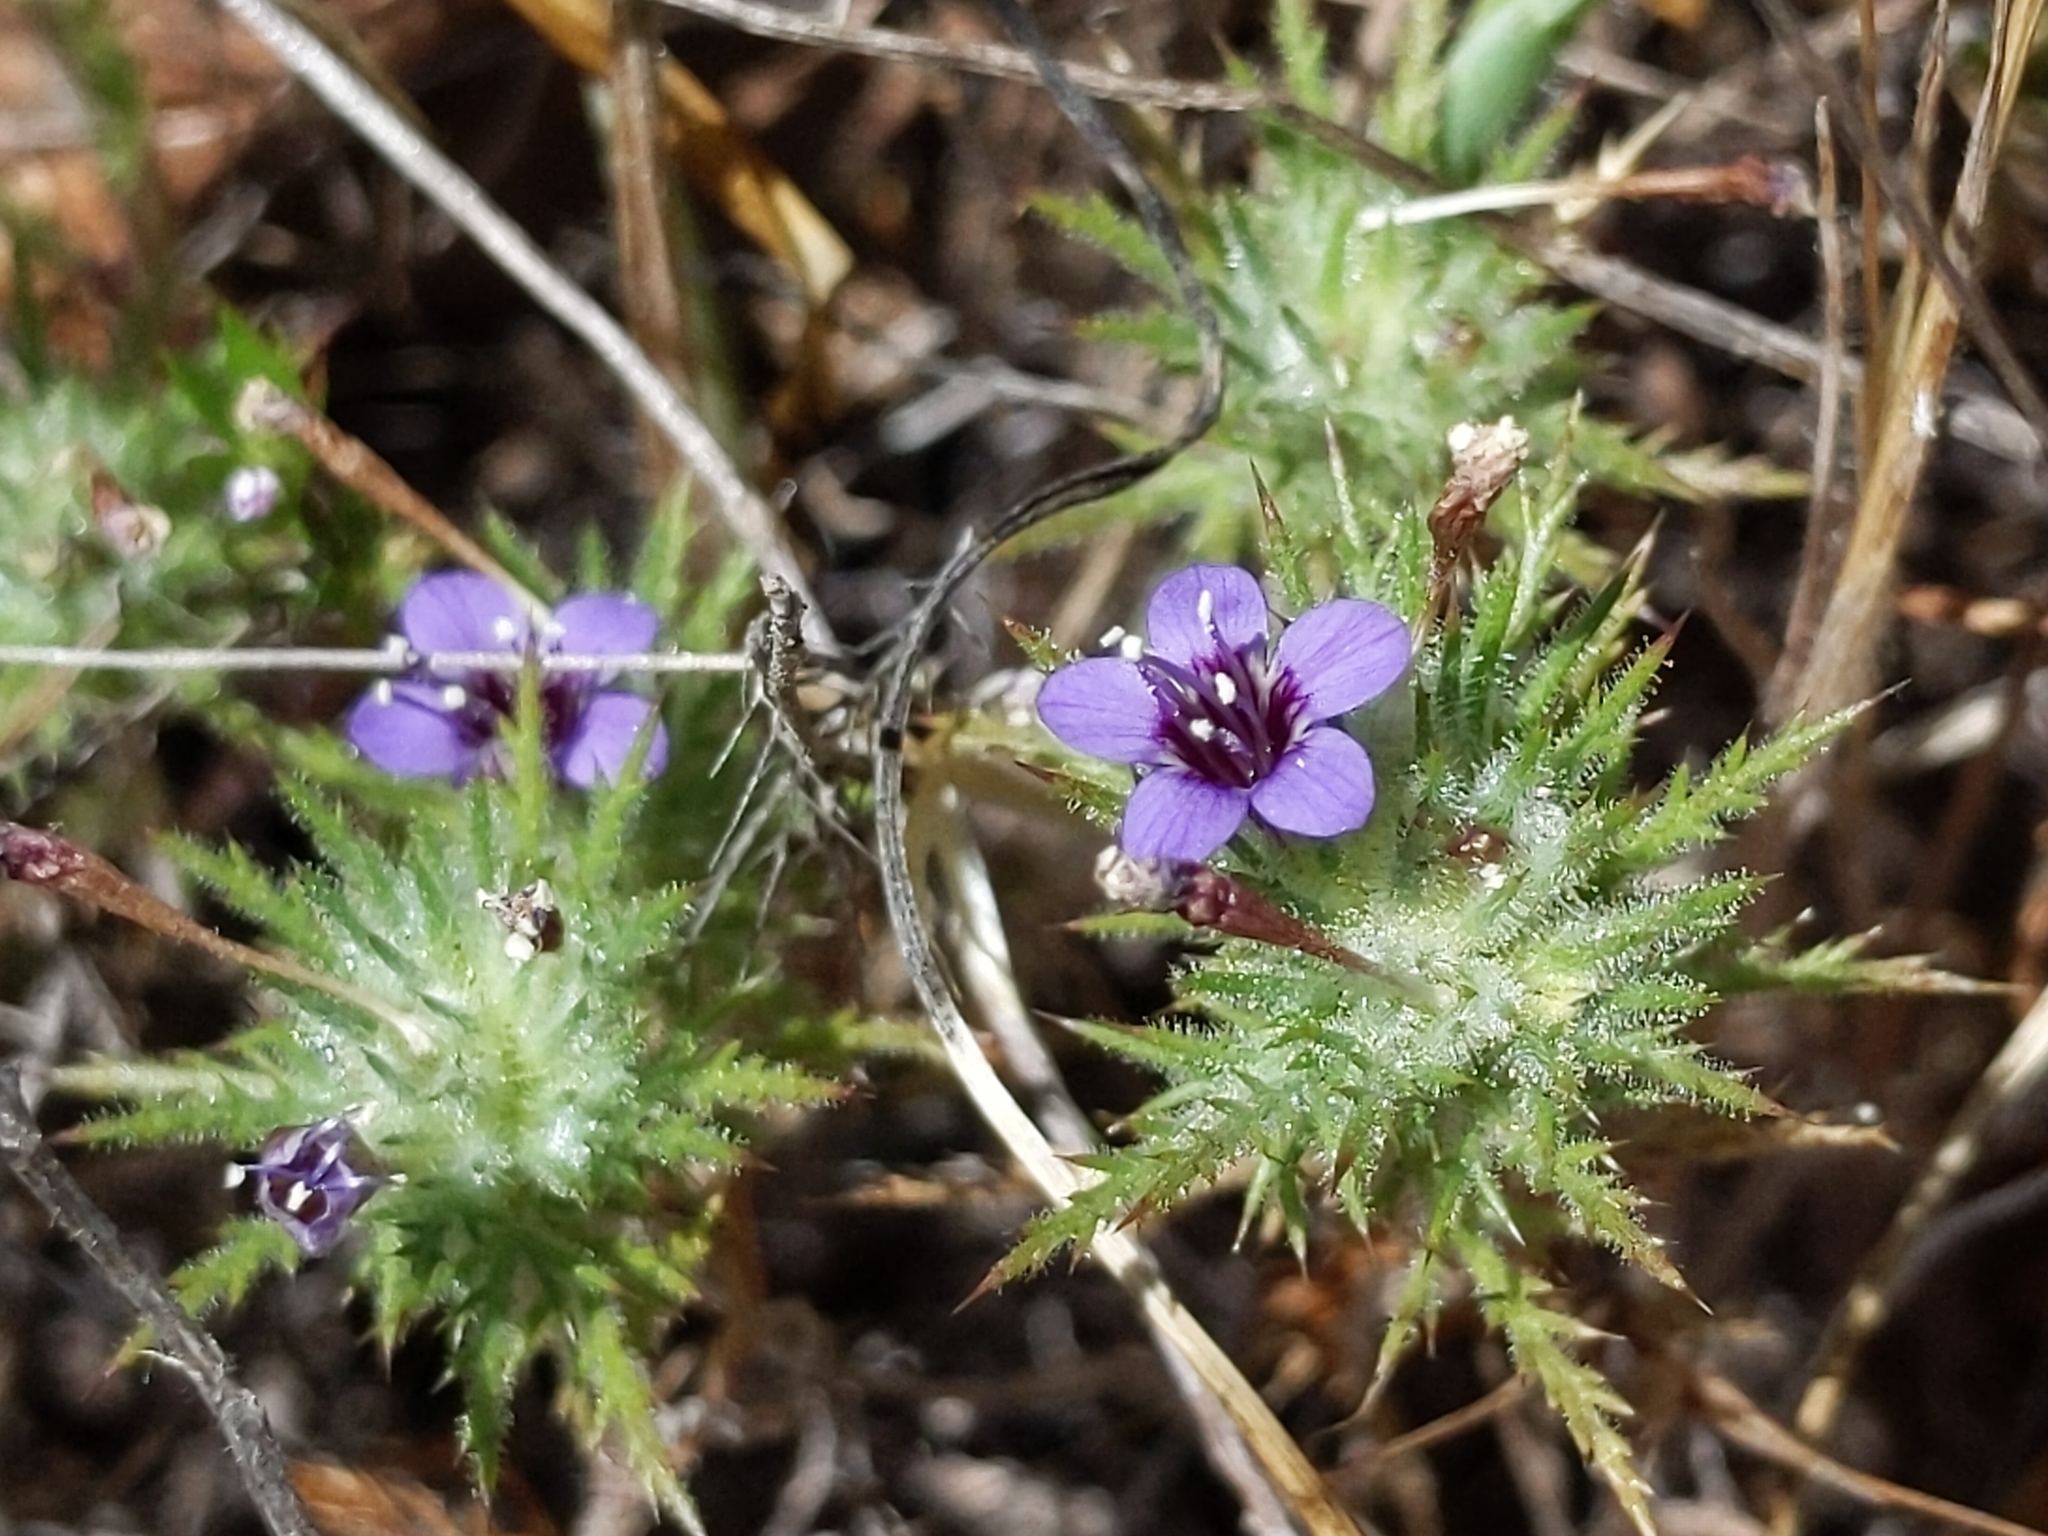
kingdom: Plantae
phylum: Tracheophyta
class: Magnoliopsida
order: Ericales
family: Polemoniaceae
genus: Navarretia
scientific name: Navarretia pubescens
